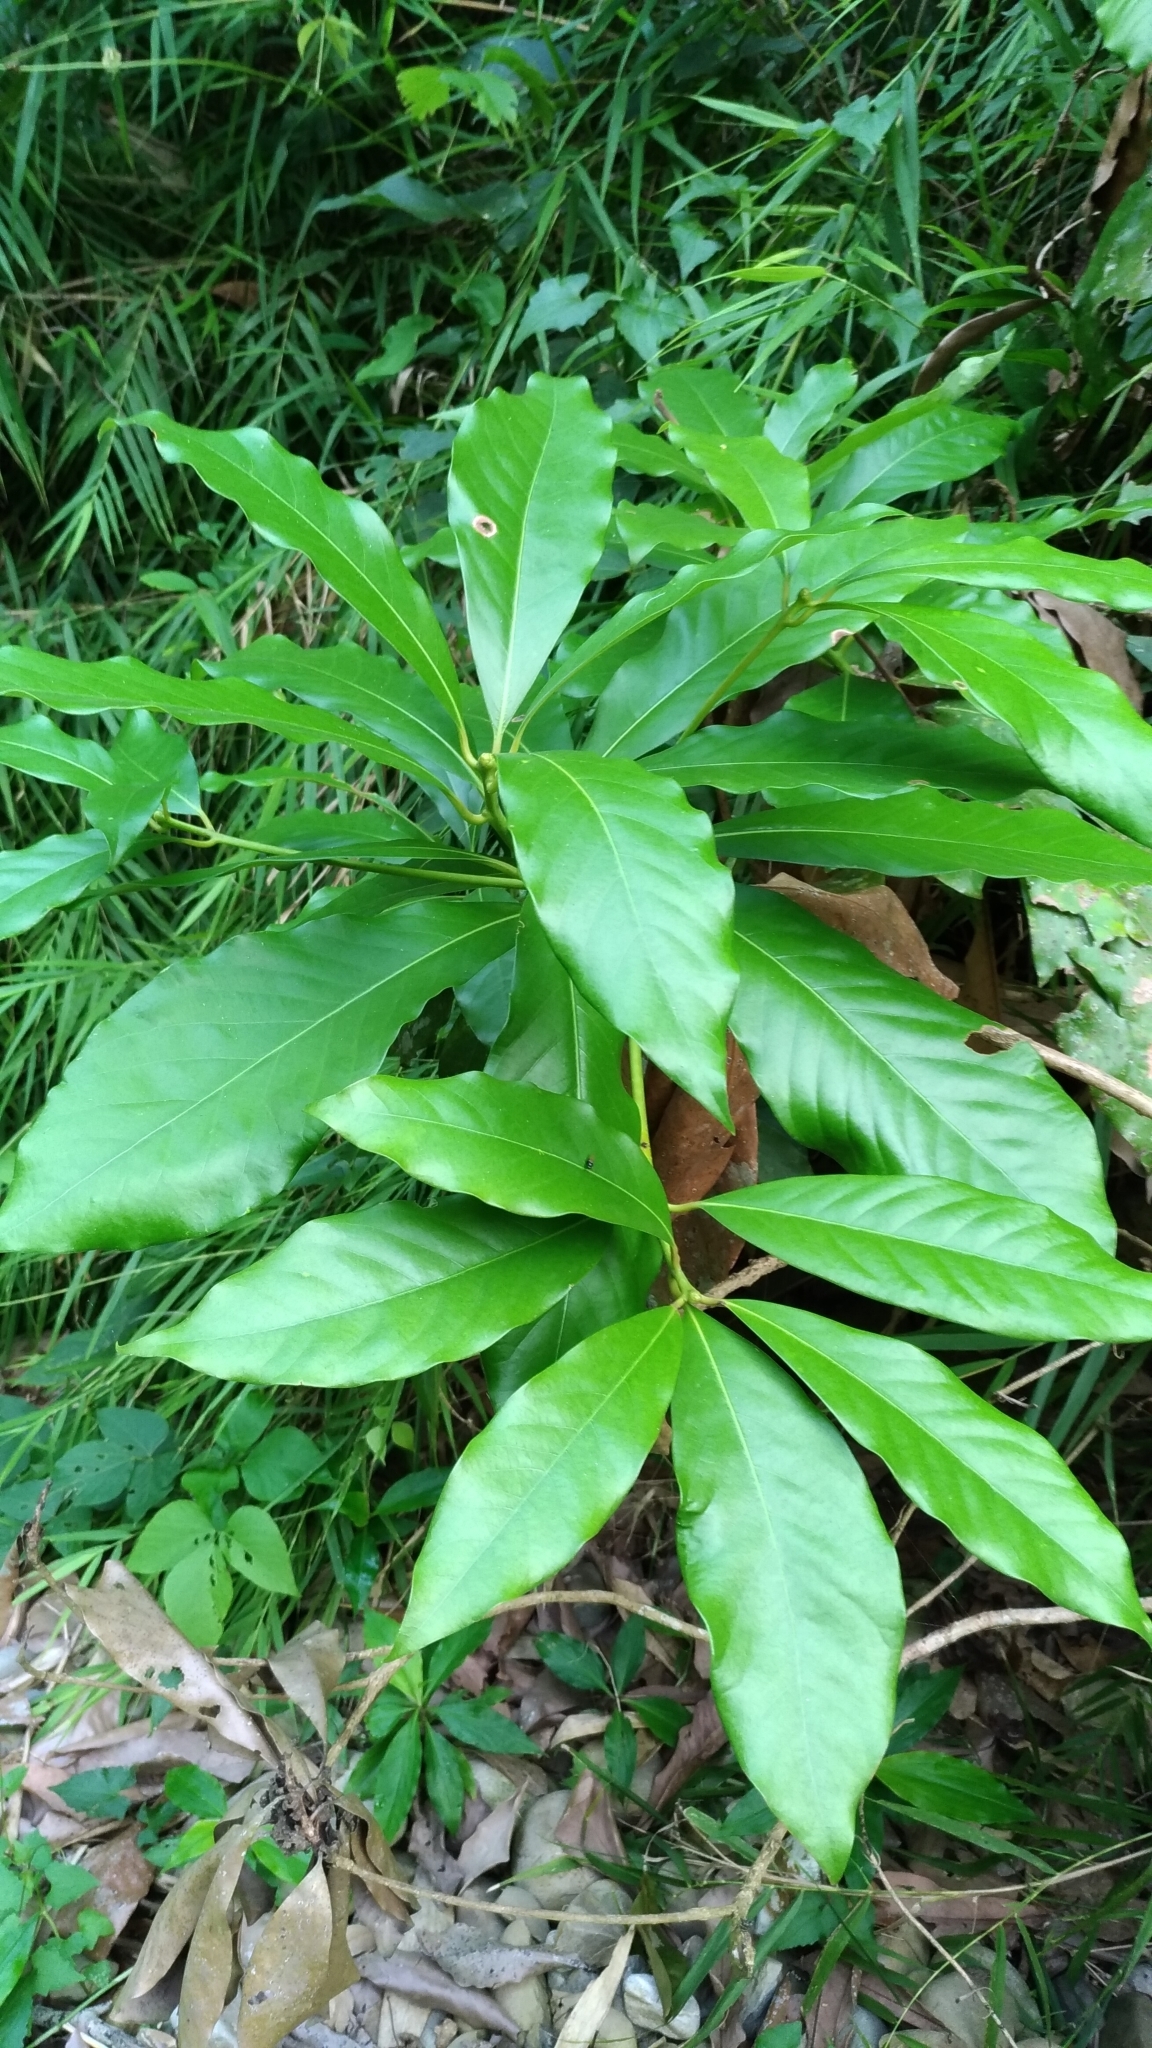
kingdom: Plantae
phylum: Tracheophyta
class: Magnoliopsida
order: Laurales
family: Lauraceae
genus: Machilus
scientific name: Machilus japonica
